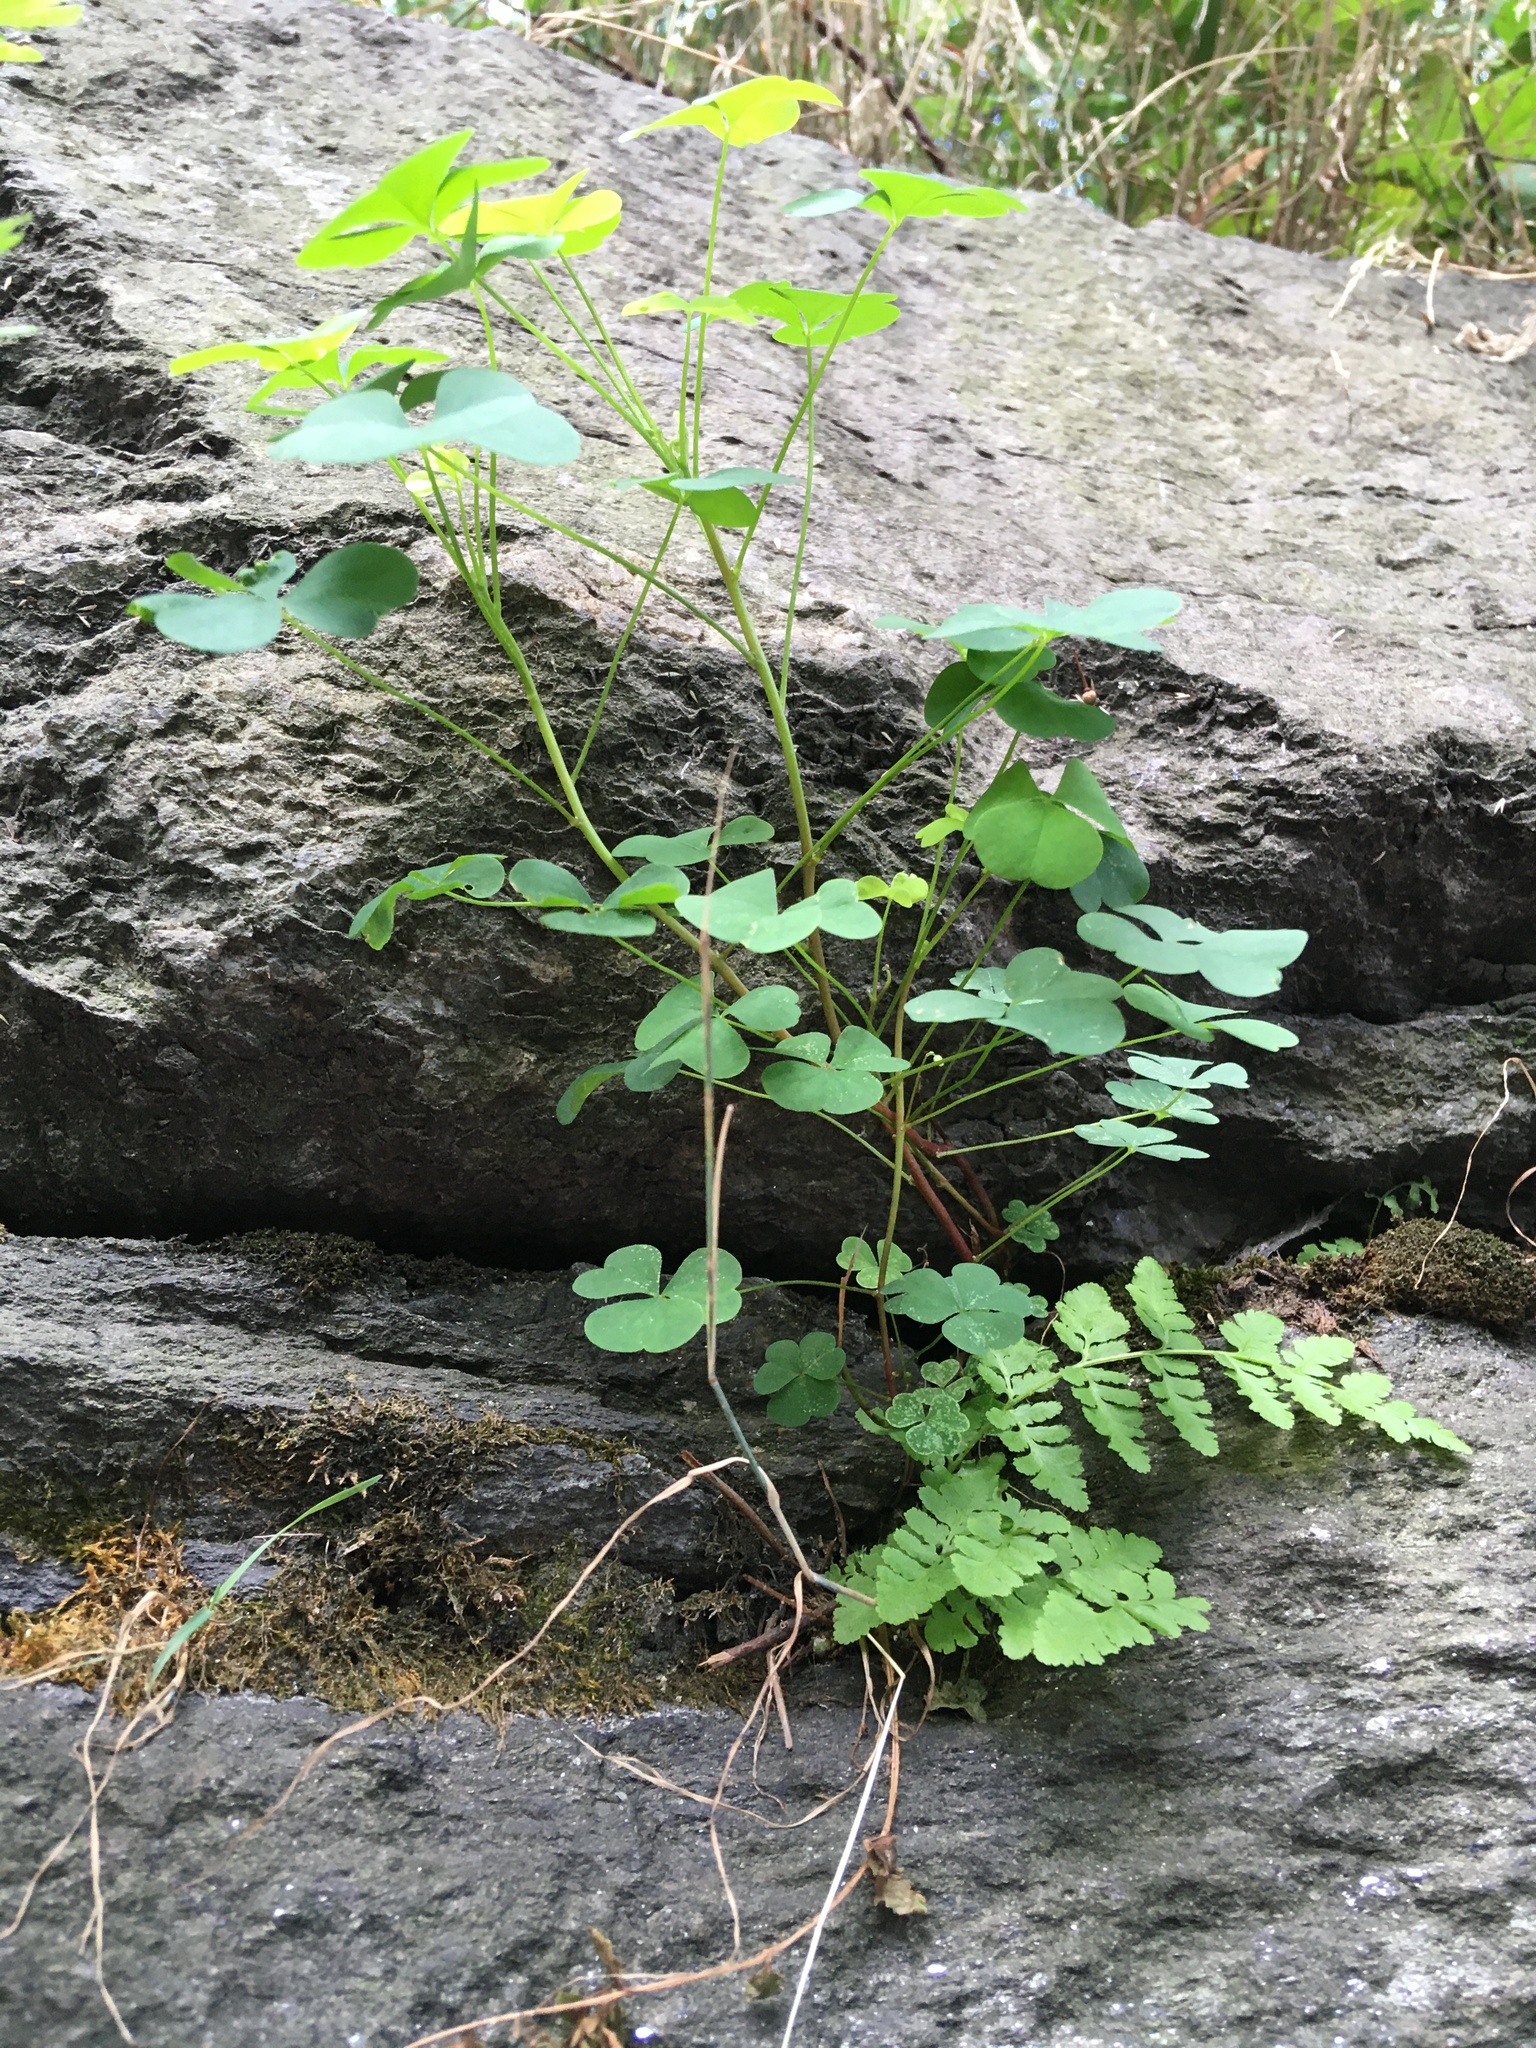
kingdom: Plantae
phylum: Tracheophyta
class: Magnoliopsida
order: Oxalidales
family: Oxalidaceae
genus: Oxalis
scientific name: Oxalis corniculata
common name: Procumbent yellow-sorrel
